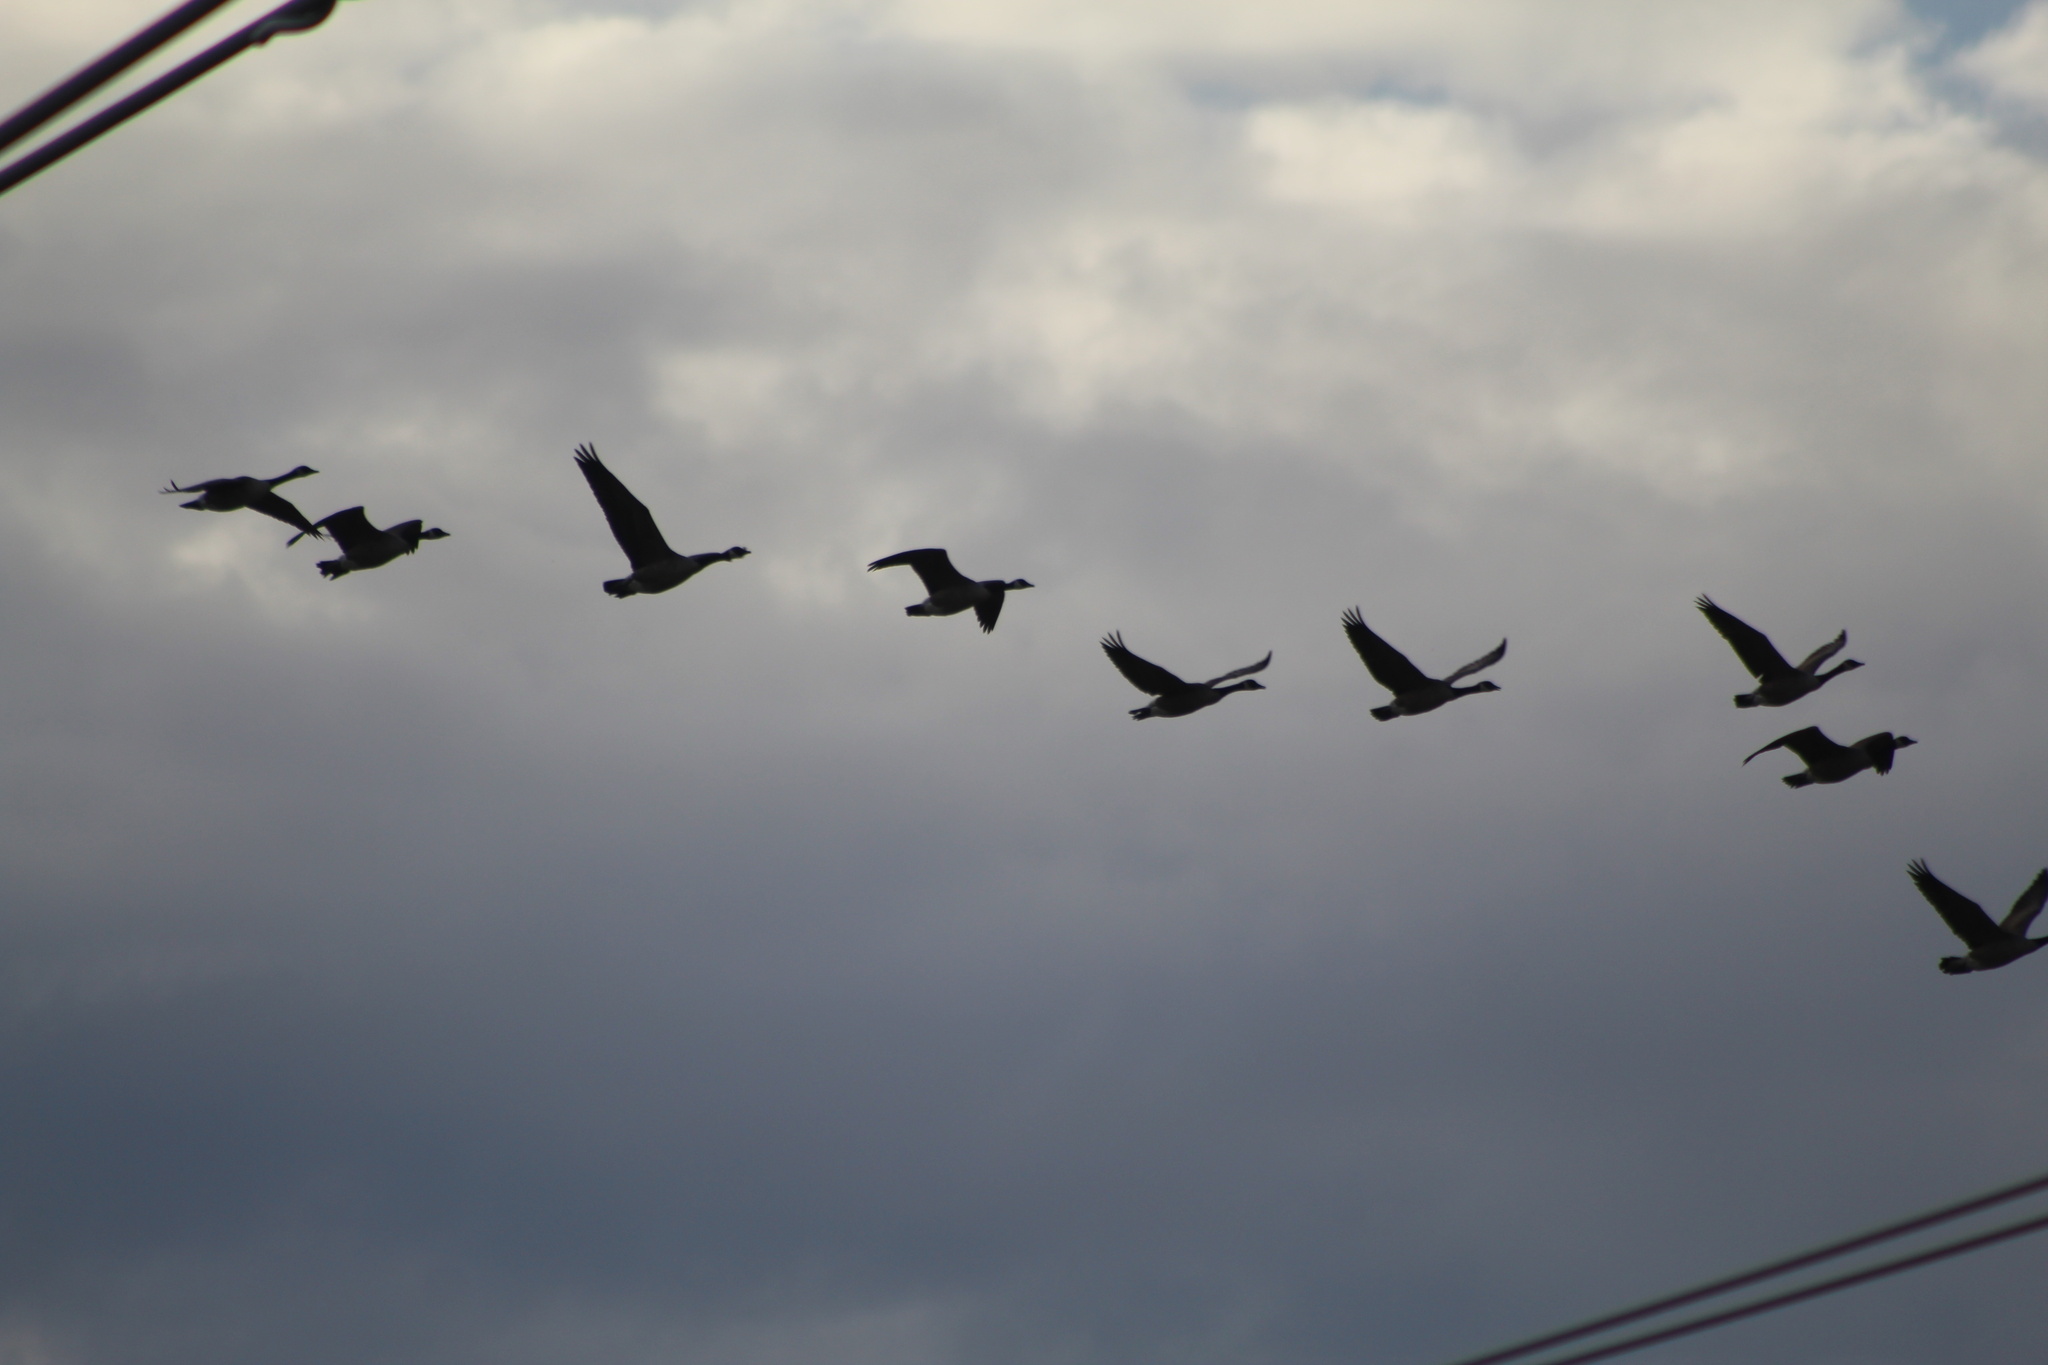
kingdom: Animalia
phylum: Chordata
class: Aves
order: Anseriformes
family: Anatidae
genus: Branta
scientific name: Branta canadensis
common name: Canada goose
